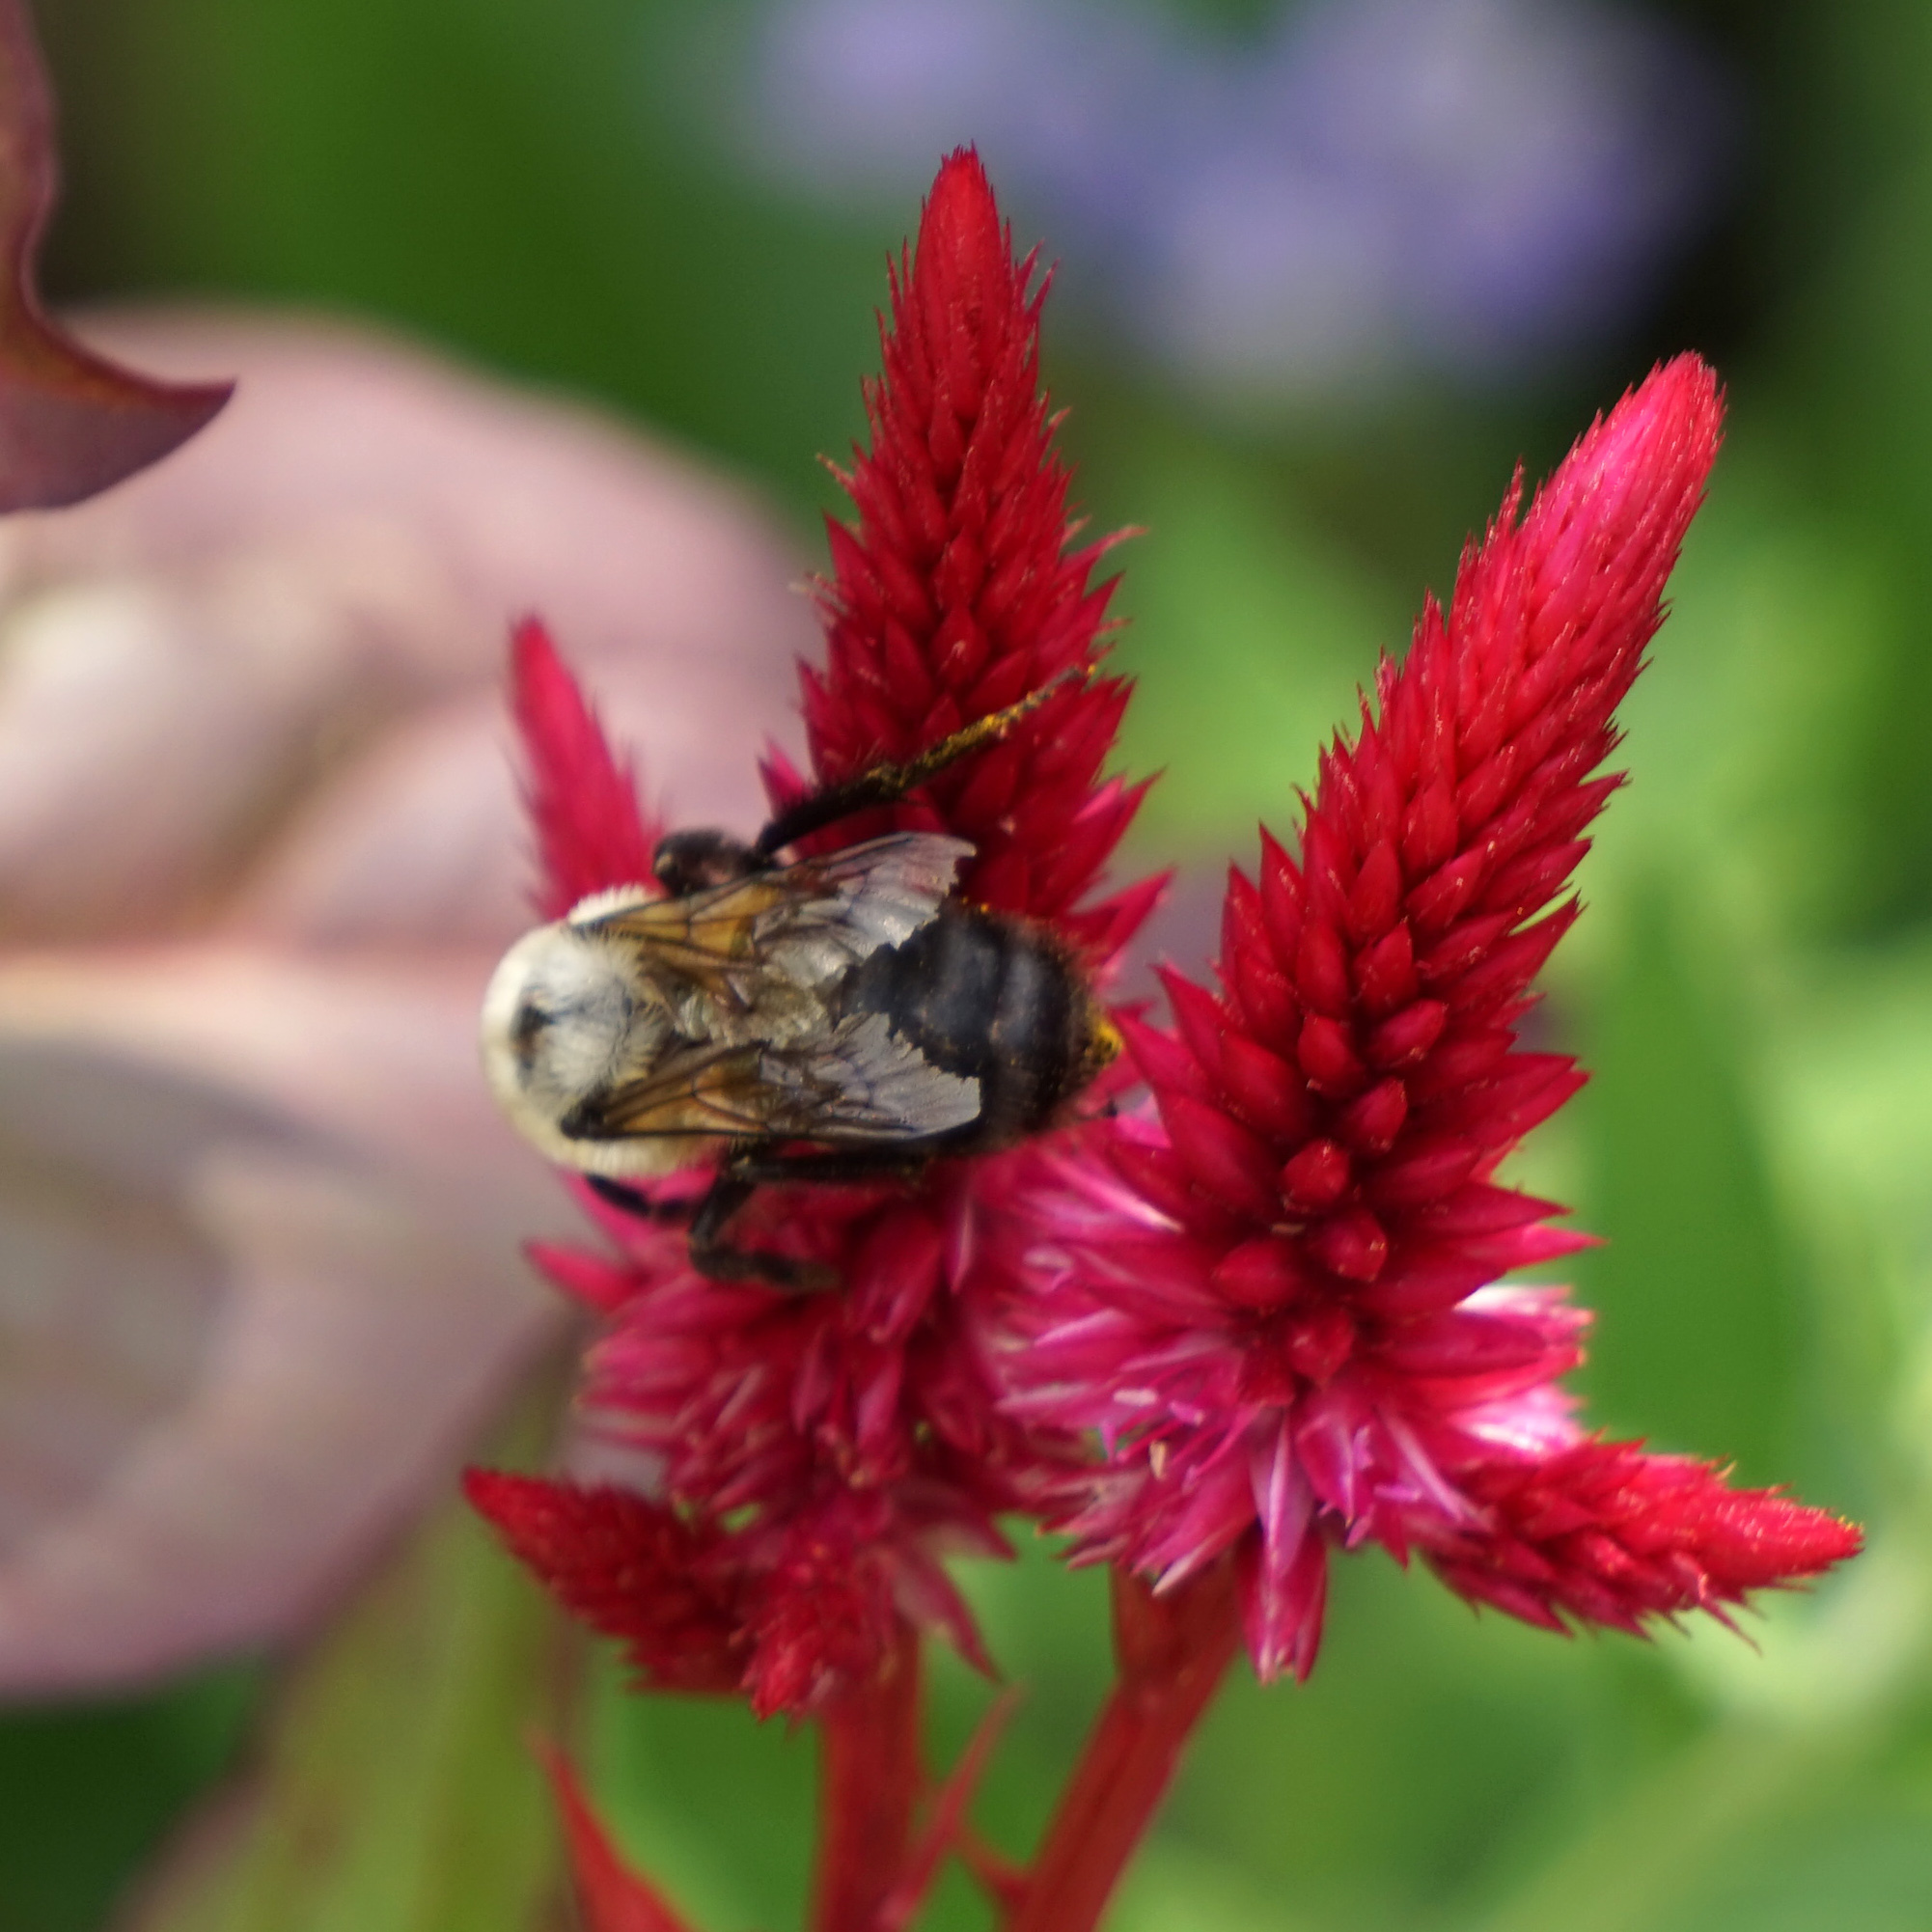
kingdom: Animalia
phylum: Arthropoda
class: Insecta
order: Hymenoptera
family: Apidae
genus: Bombus
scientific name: Bombus griseocollis
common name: Brown-belted bumble bee
